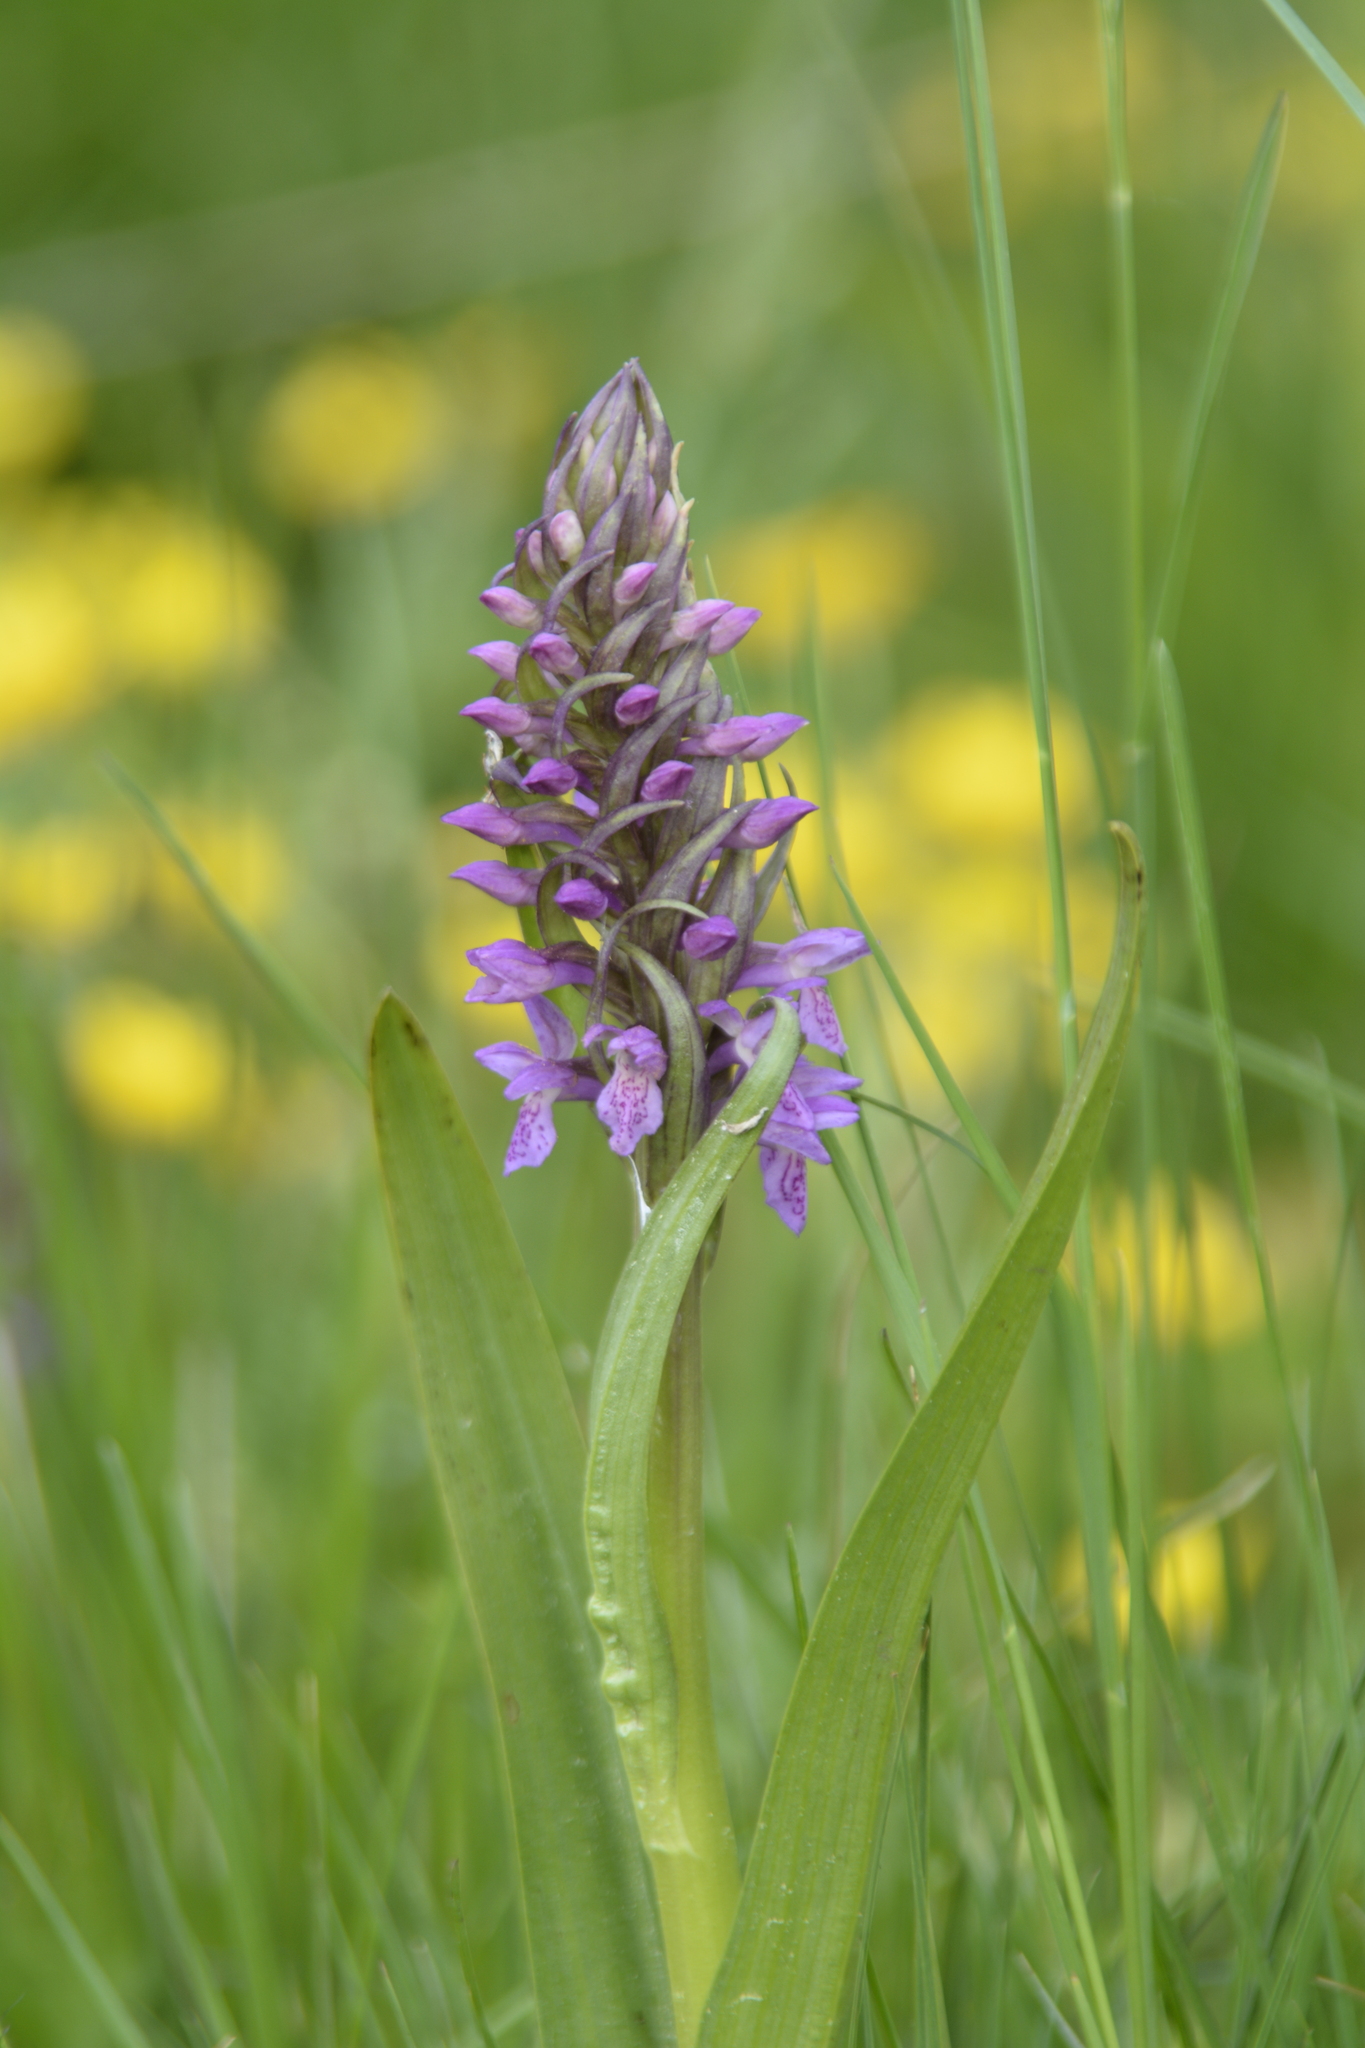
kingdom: Plantae
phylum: Tracheophyta
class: Liliopsida
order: Asparagales
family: Orchidaceae
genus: Dactylorhiza
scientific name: Dactylorhiza incarnata
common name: Early marsh-orchid
